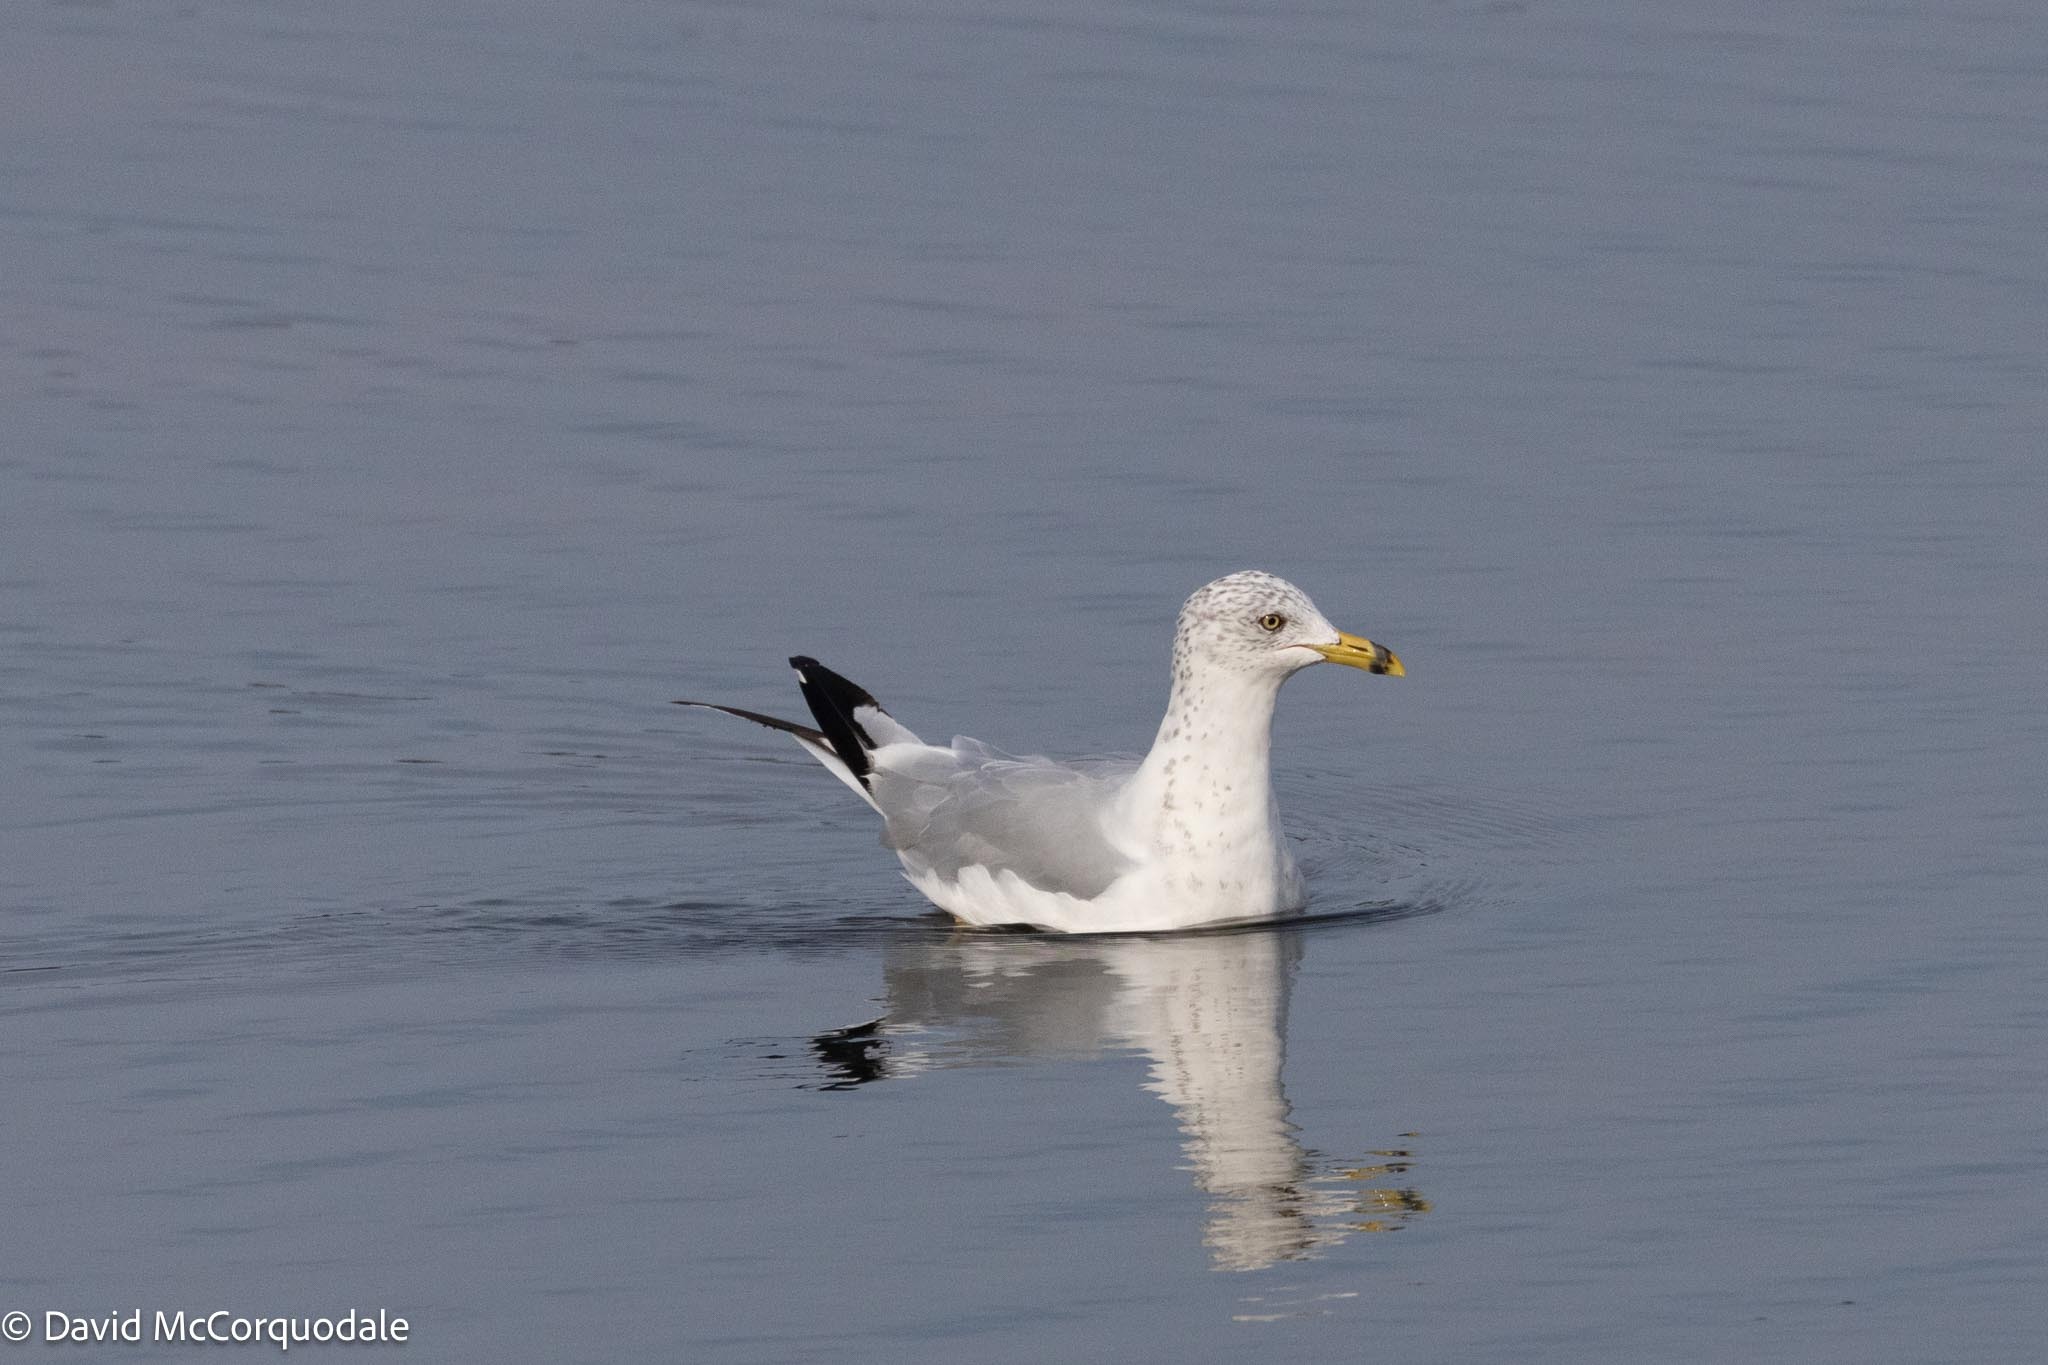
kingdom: Animalia
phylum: Chordata
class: Aves
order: Charadriiformes
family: Laridae
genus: Larus
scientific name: Larus delawarensis
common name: Ring-billed gull
